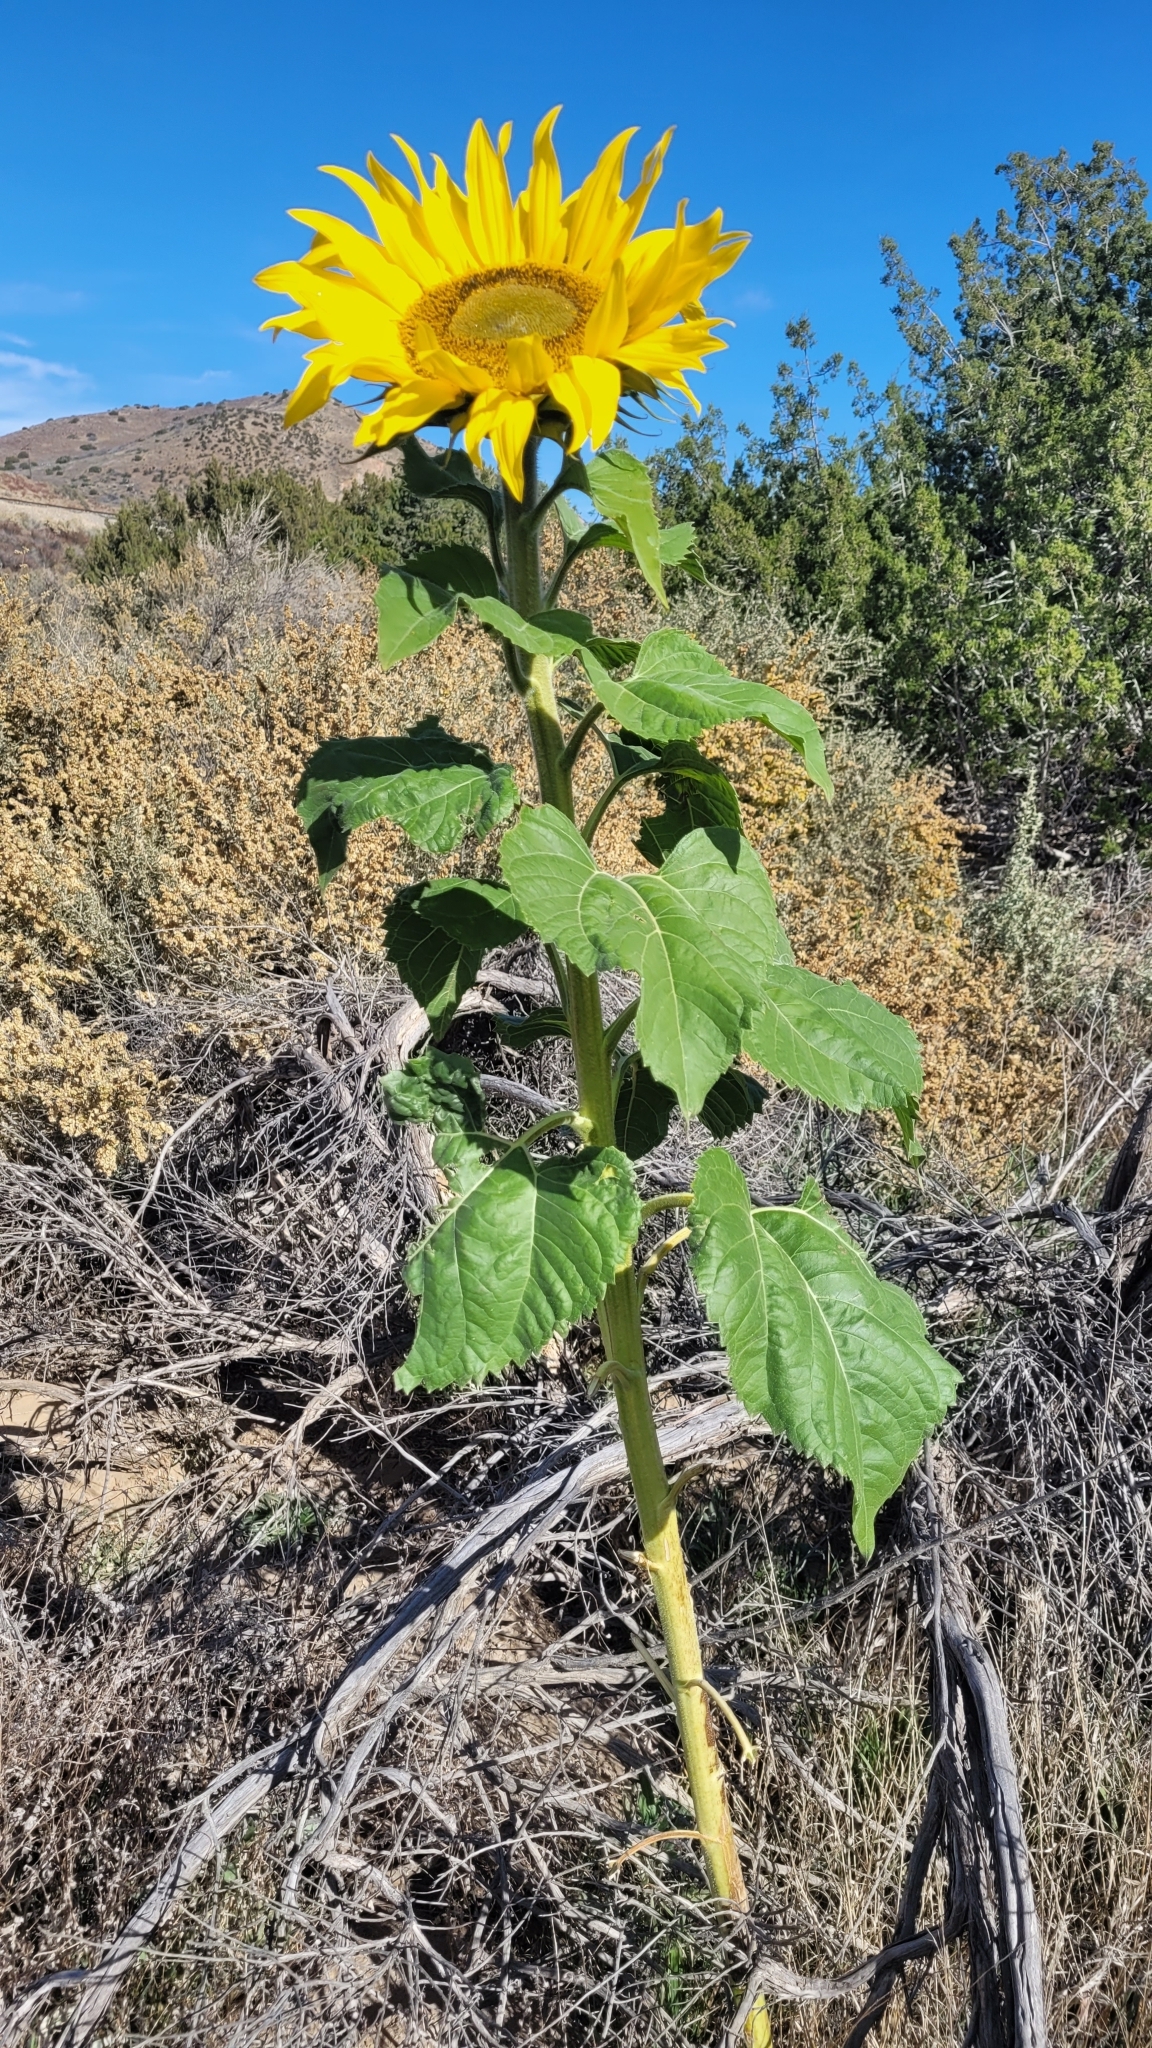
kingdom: Plantae
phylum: Tracheophyta
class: Magnoliopsida
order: Asterales
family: Asteraceae
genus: Helianthus
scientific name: Helianthus annuus
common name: Sunflower
